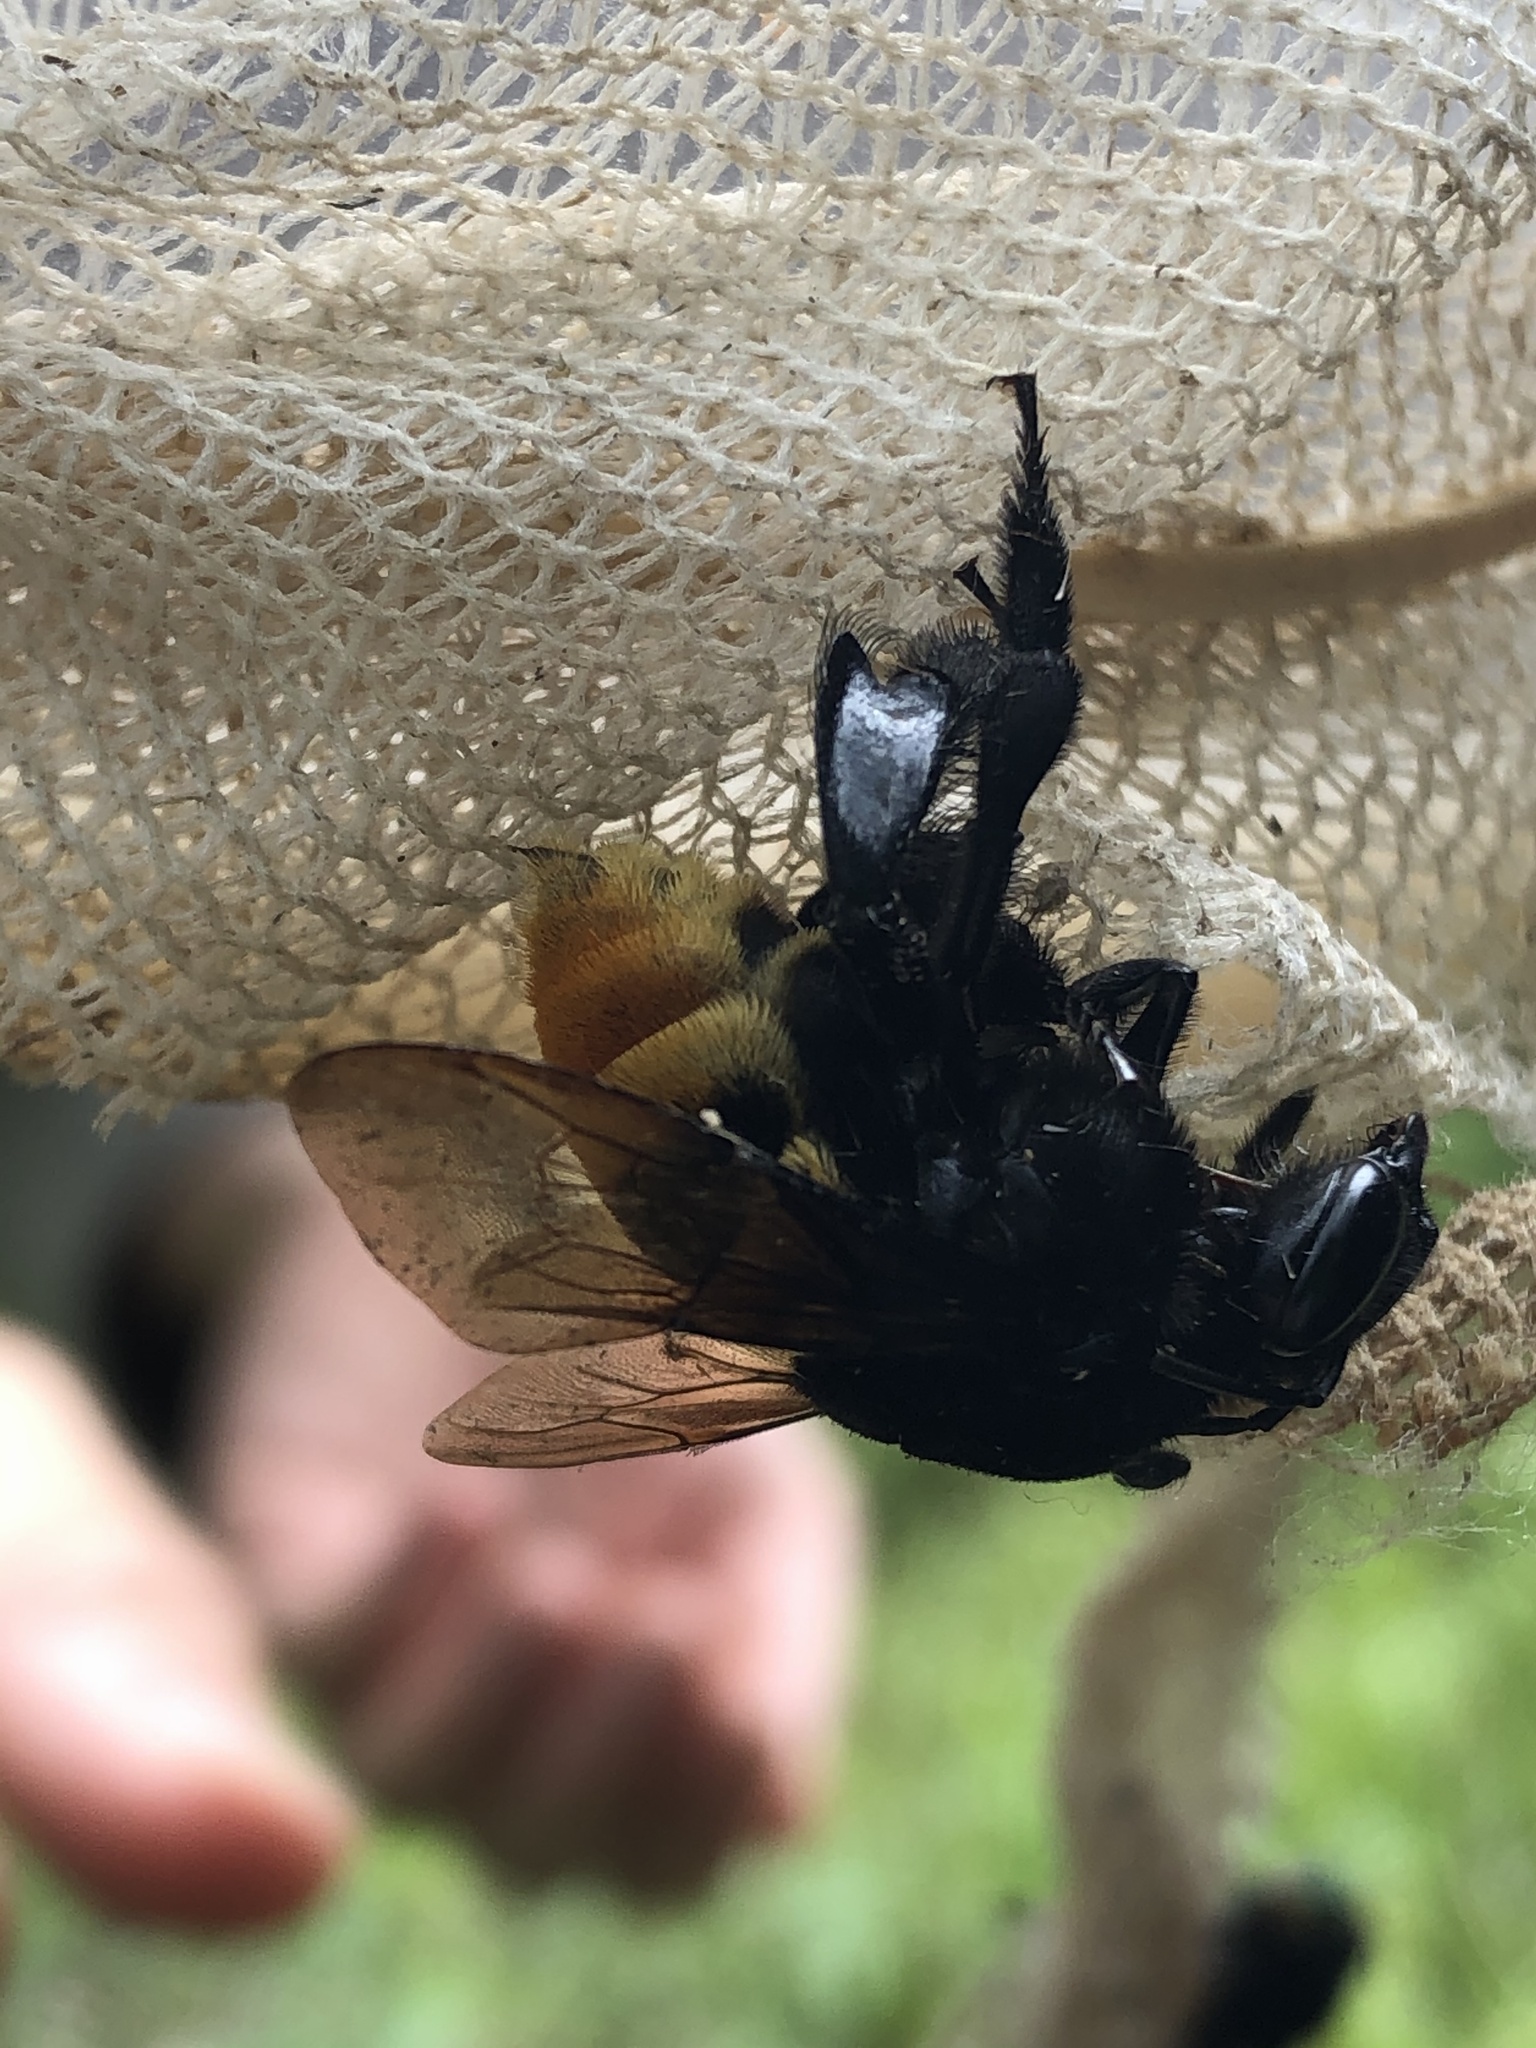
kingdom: Animalia
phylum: Arthropoda
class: Insecta
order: Hymenoptera
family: Apidae
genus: Eulaema
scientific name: Eulaema cingulata
